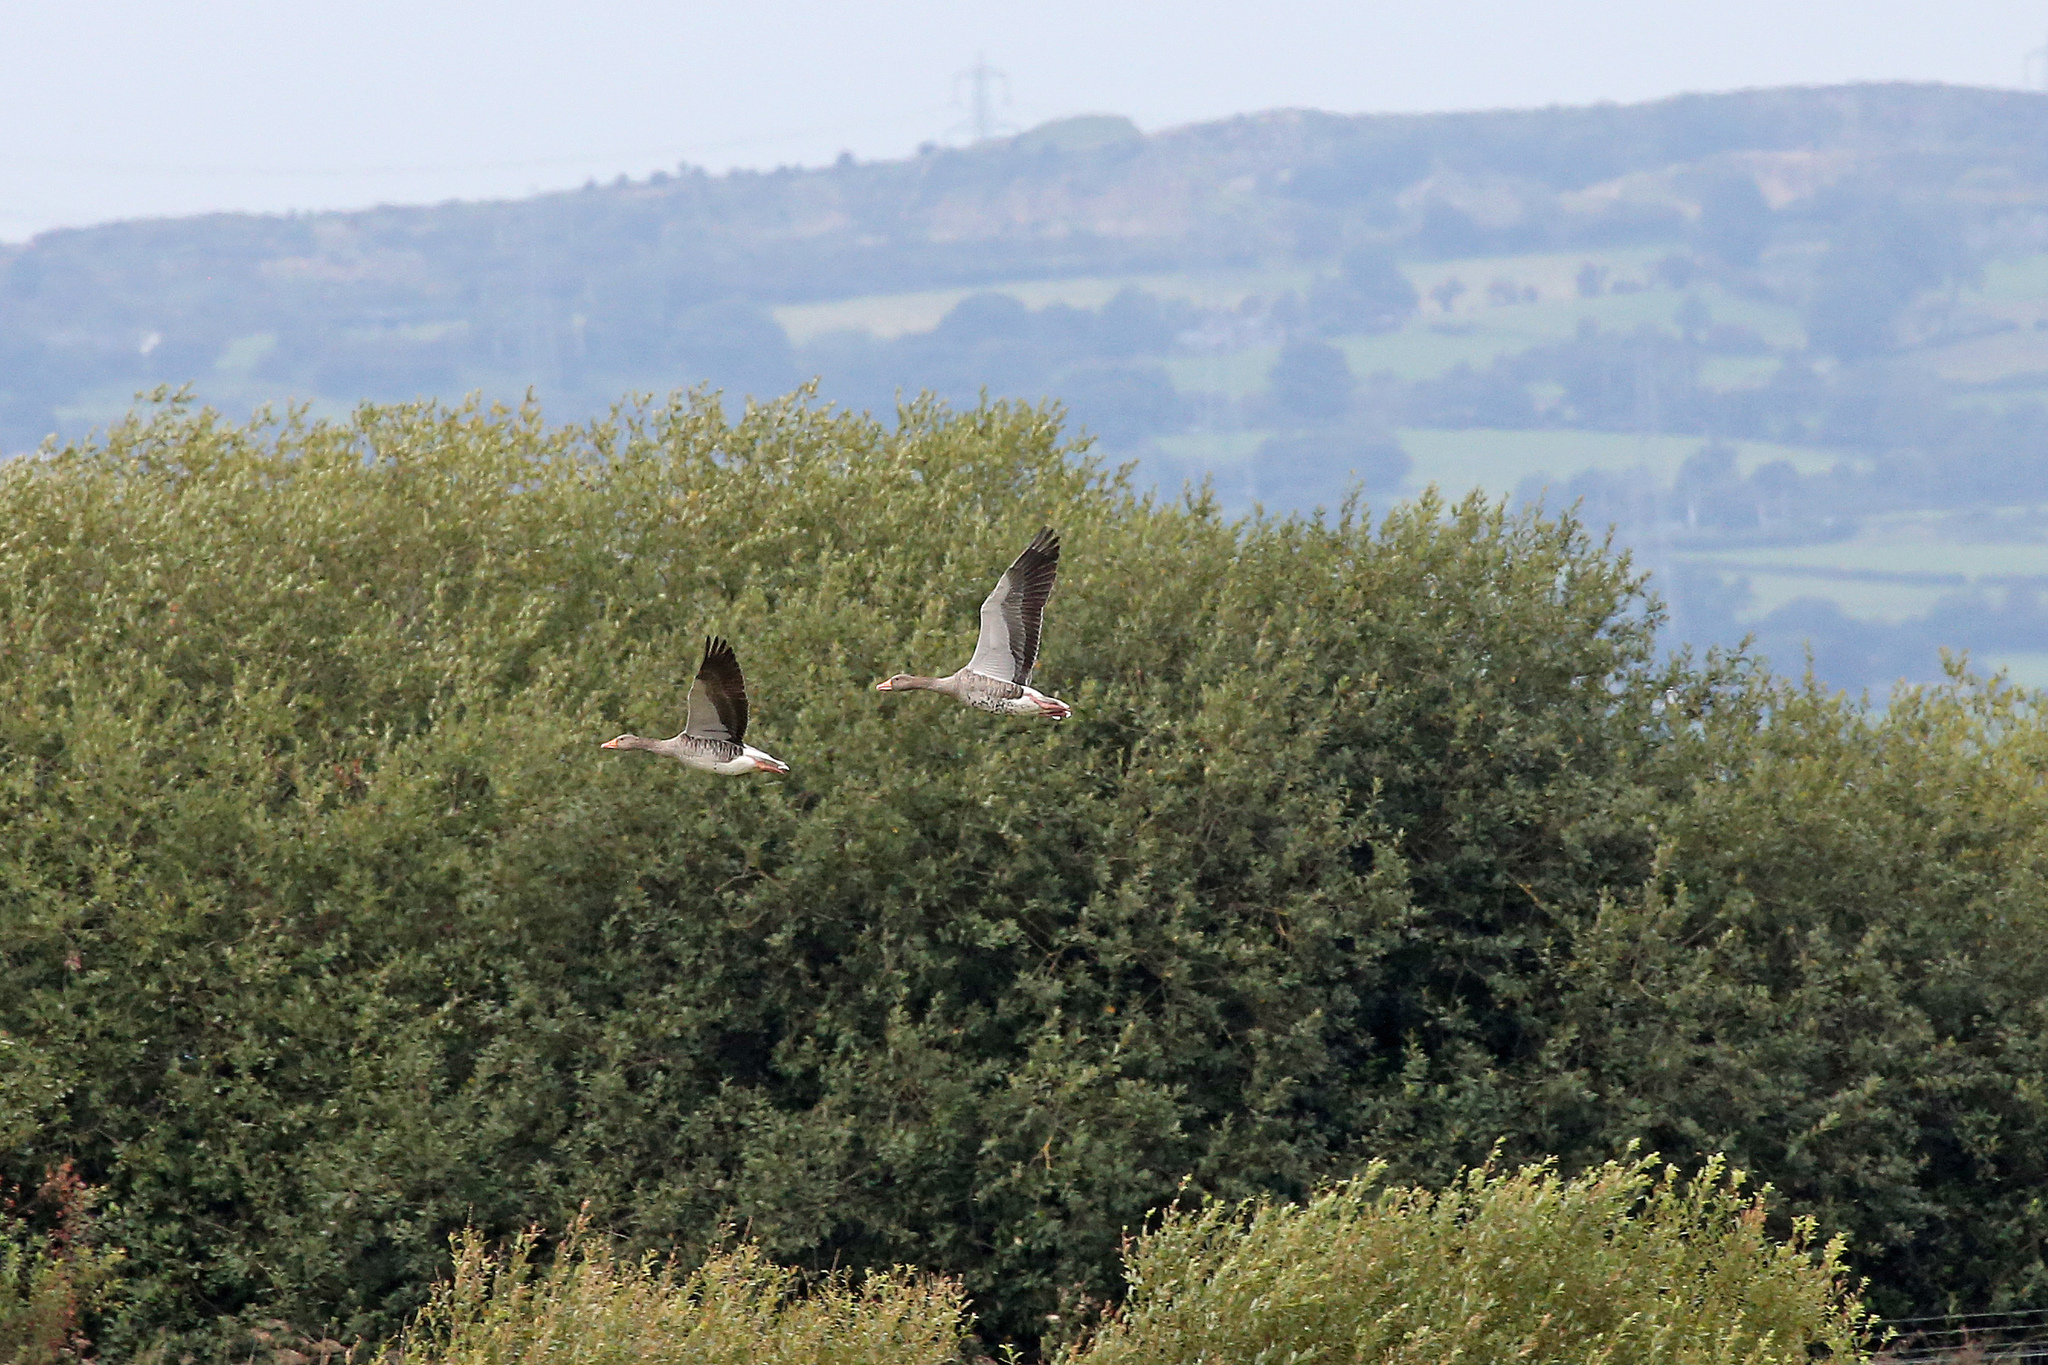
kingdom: Animalia
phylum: Chordata
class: Aves
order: Anseriformes
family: Anatidae
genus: Anser
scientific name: Anser anser
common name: Greylag goose
